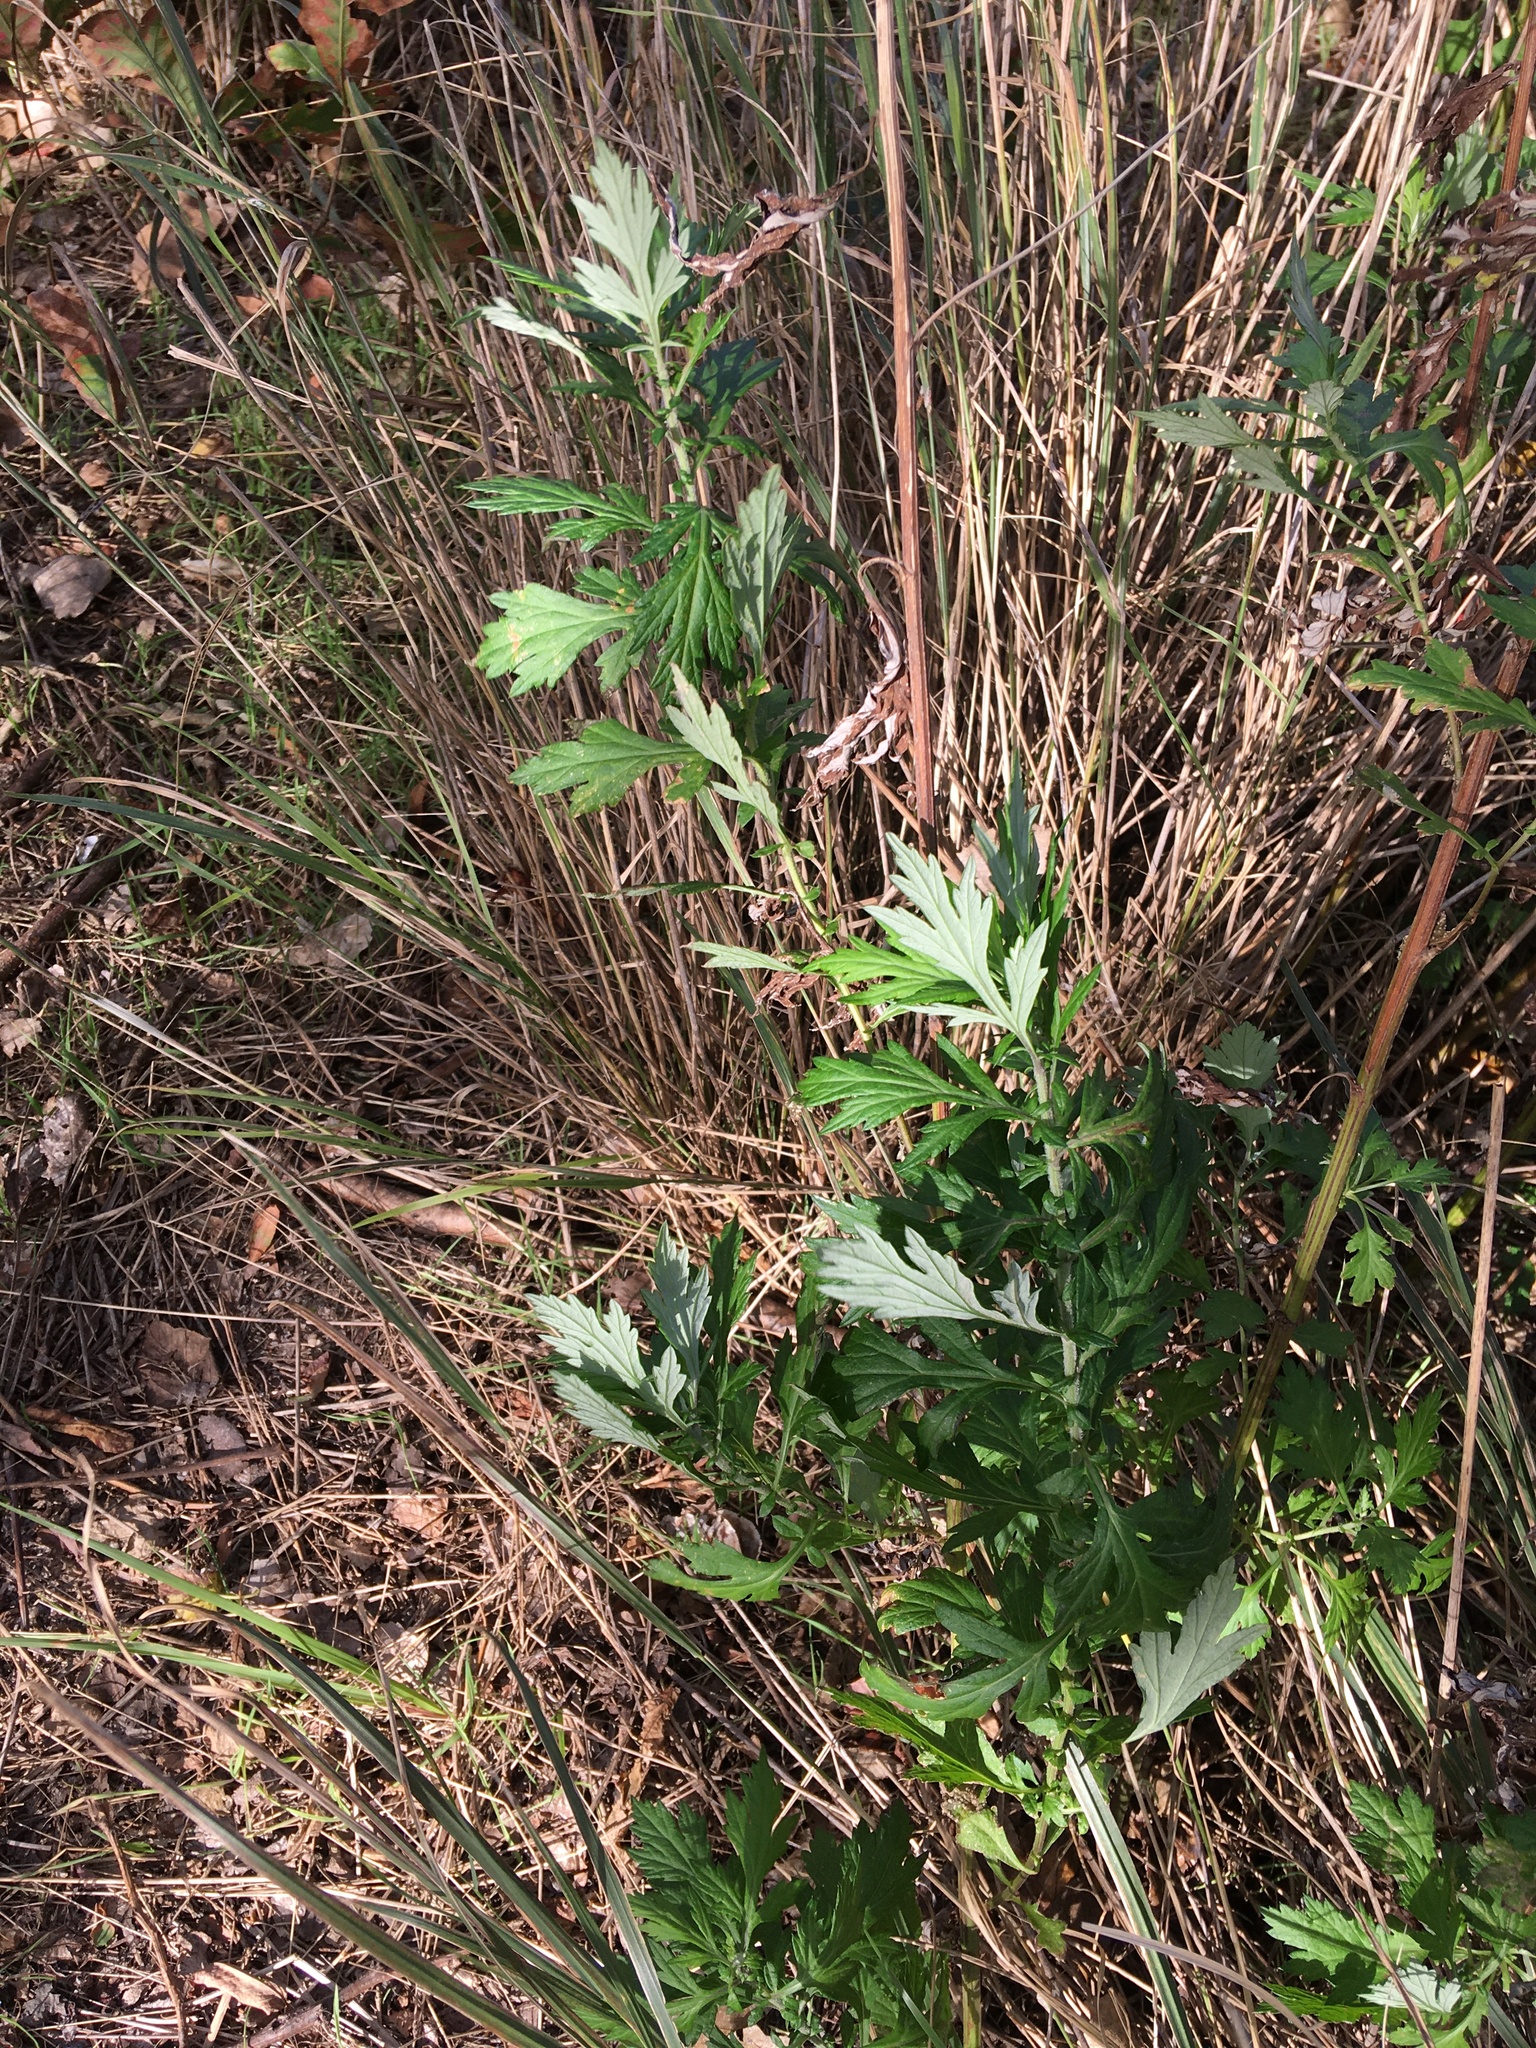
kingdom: Plantae
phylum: Tracheophyta
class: Magnoliopsida
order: Asterales
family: Asteraceae
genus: Artemisia
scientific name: Artemisia vulgaris
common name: Mugwort
